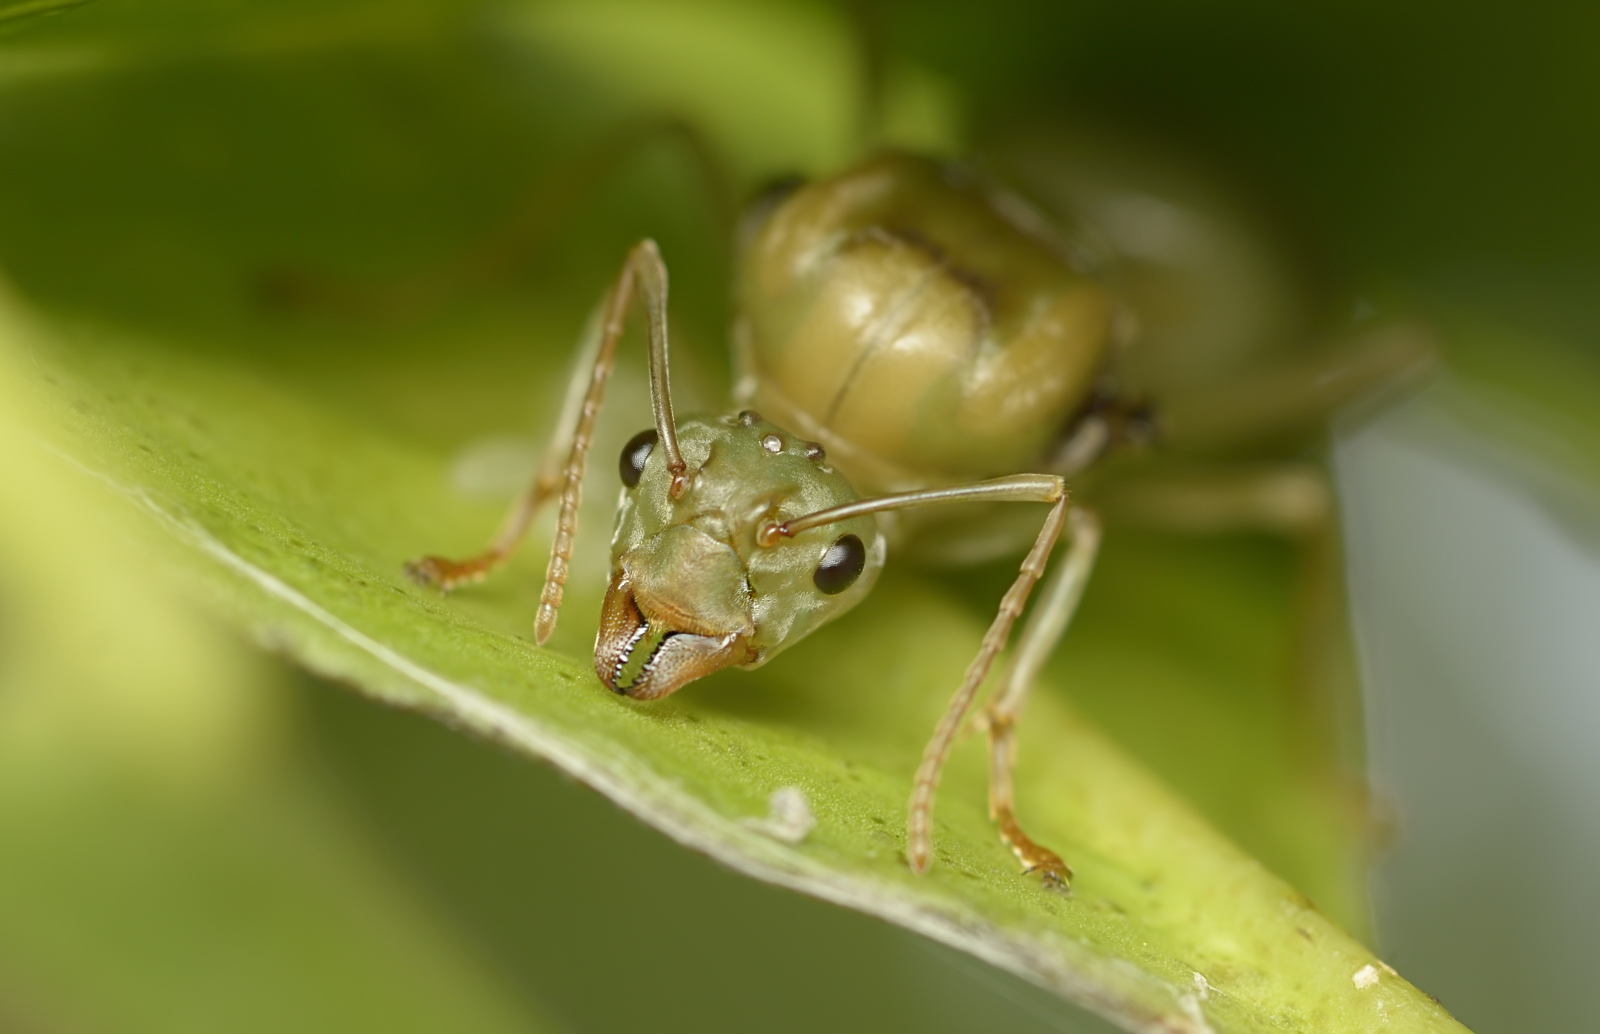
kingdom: Animalia
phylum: Arthropoda
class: Insecta
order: Hymenoptera
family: Formicidae
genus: Oecophylla
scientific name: Oecophylla smaragdina
